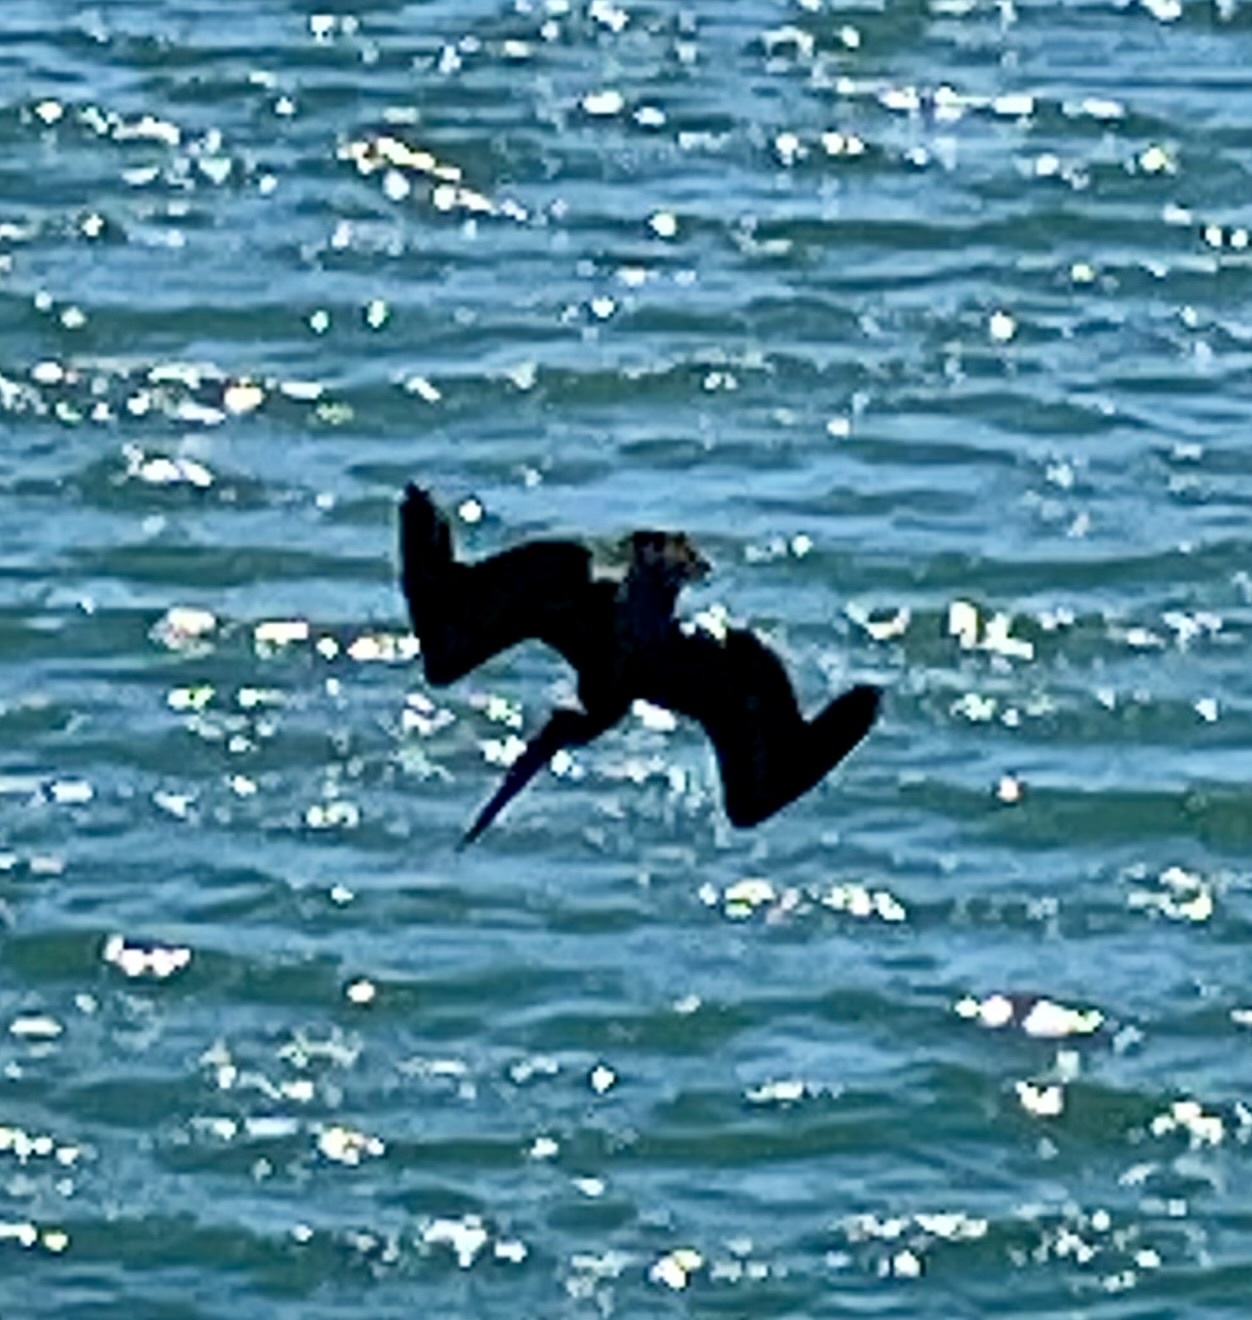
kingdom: Animalia
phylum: Chordata
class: Aves
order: Pelecaniformes
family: Pelecanidae
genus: Pelecanus
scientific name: Pelecanus occidentalis
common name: Brown pelican
